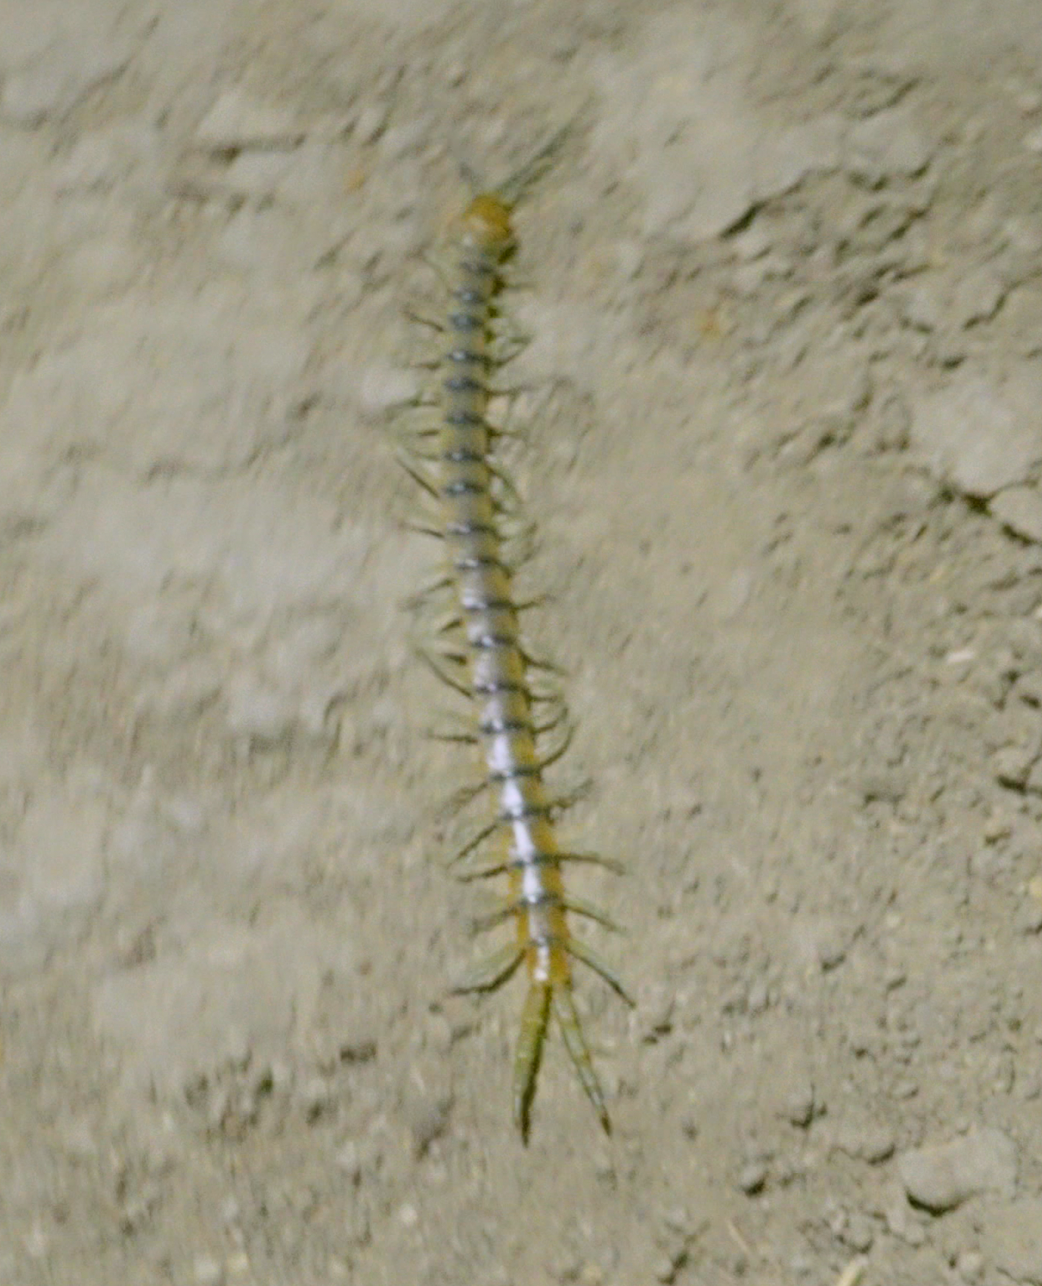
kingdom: Animalia
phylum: Arthropoda
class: Chilopoda
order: Scolopendromorpha
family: Scolopendridae
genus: Scolopendra
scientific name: Scolopendra polymorpha
